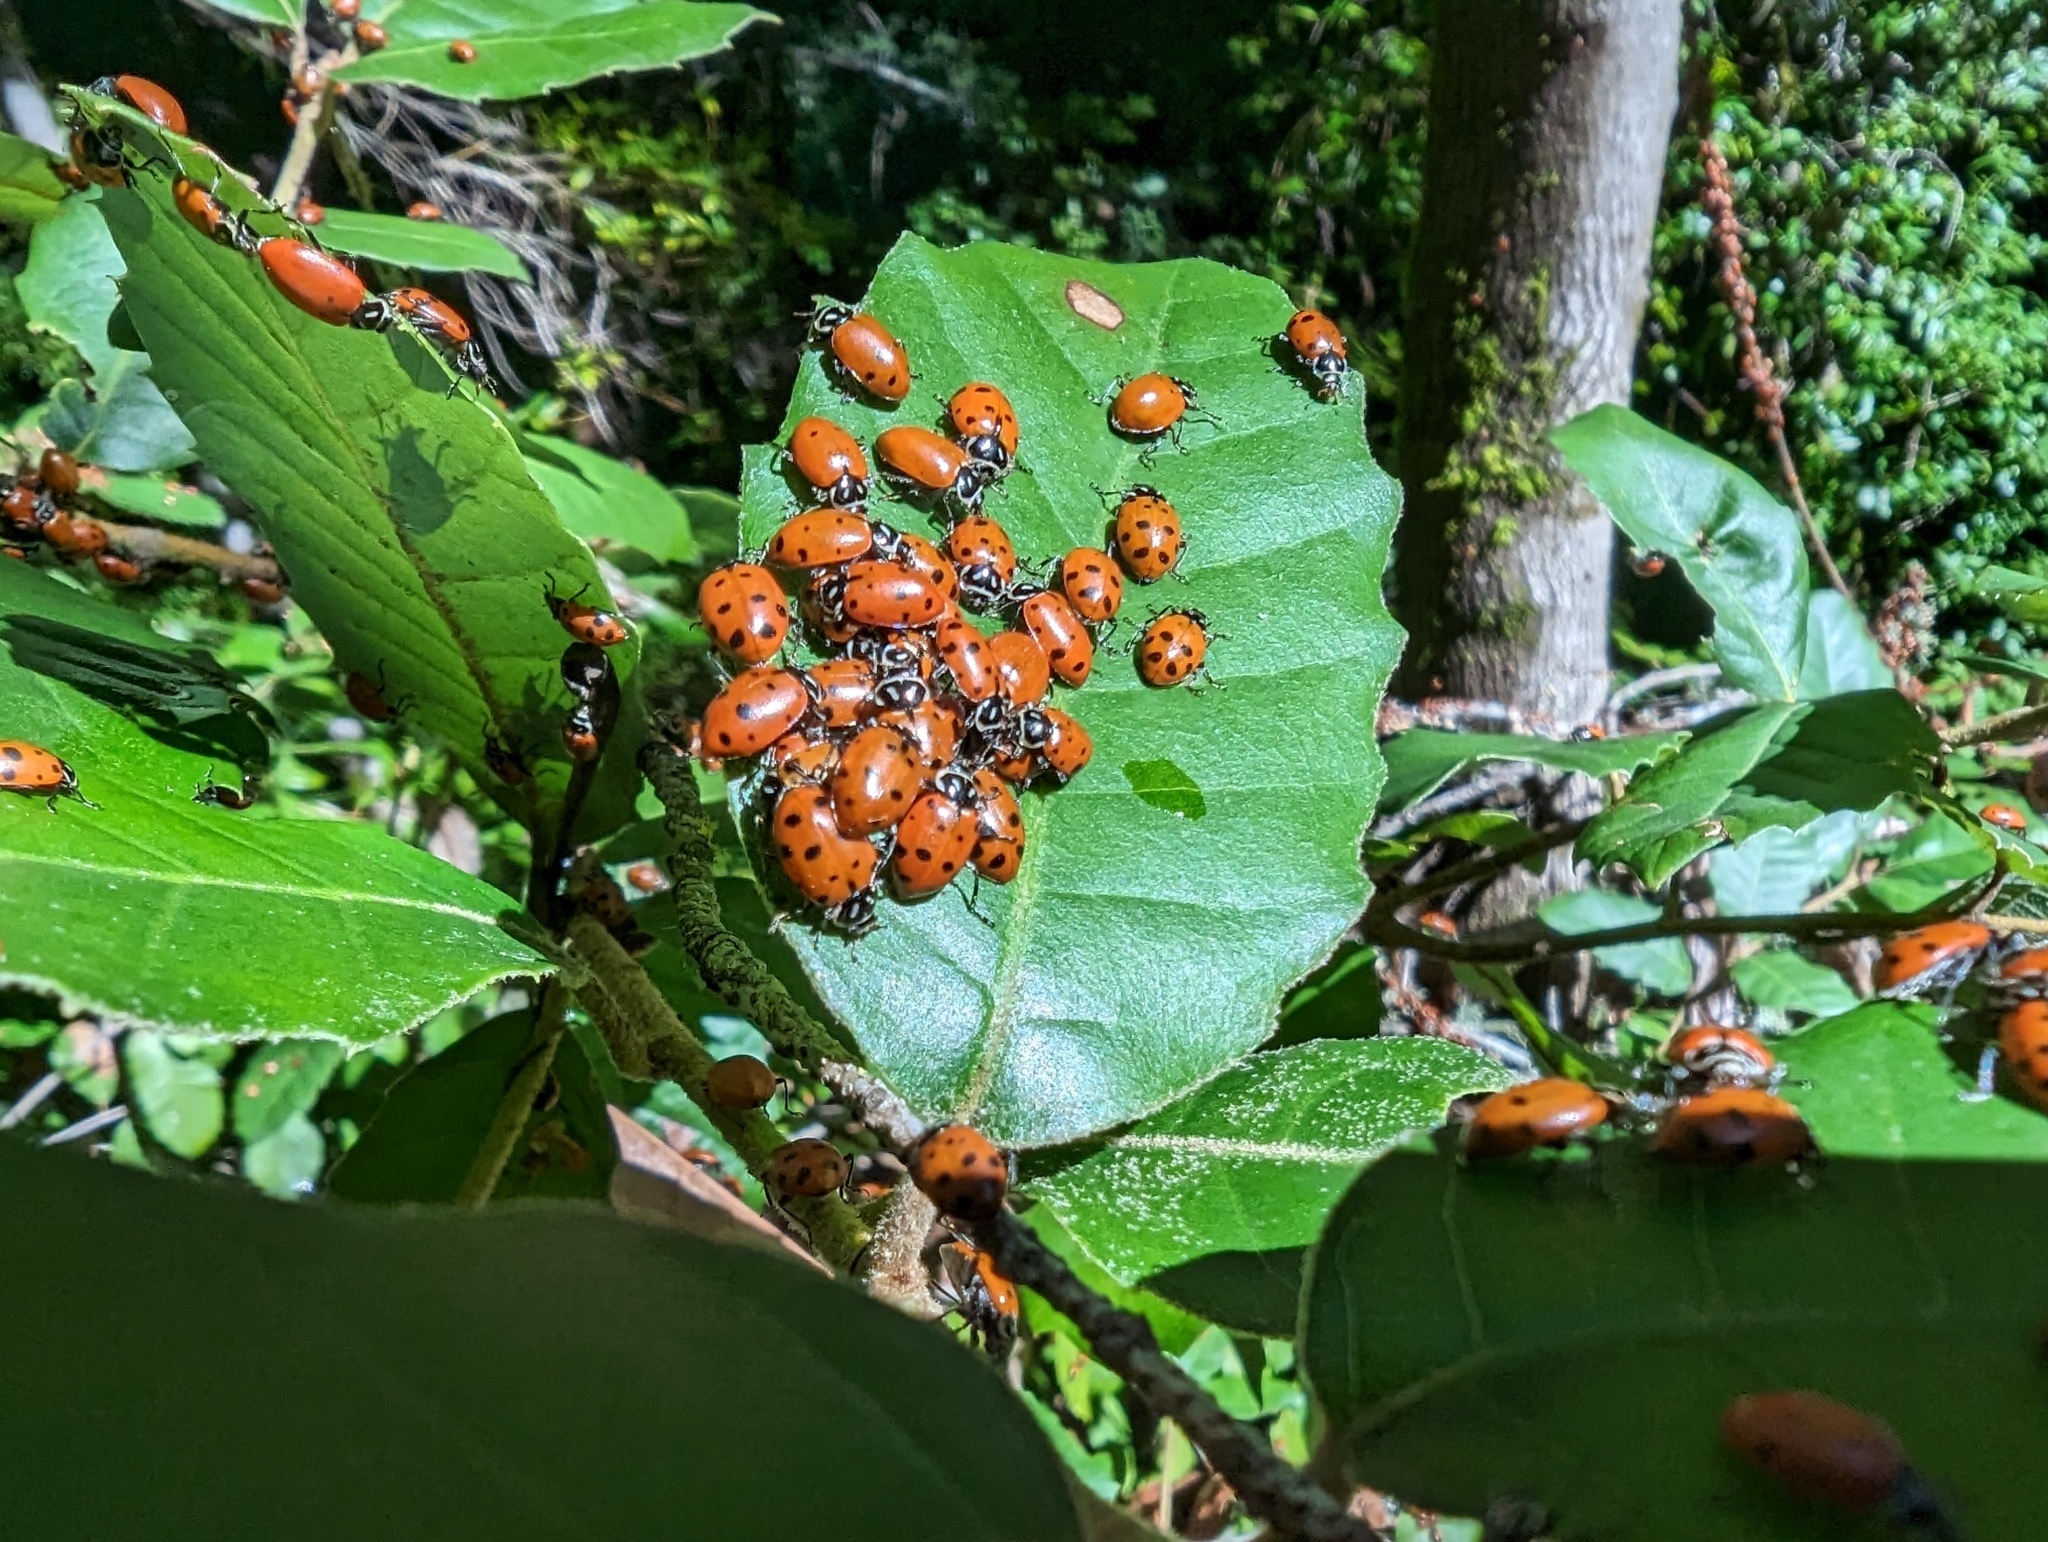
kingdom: Animalia
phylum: Arthropoda
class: Insecta
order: Coleoptera
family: Coccinellidae
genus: Hippodamia
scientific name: Hippodamia convergens
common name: Convergent lady beetle
